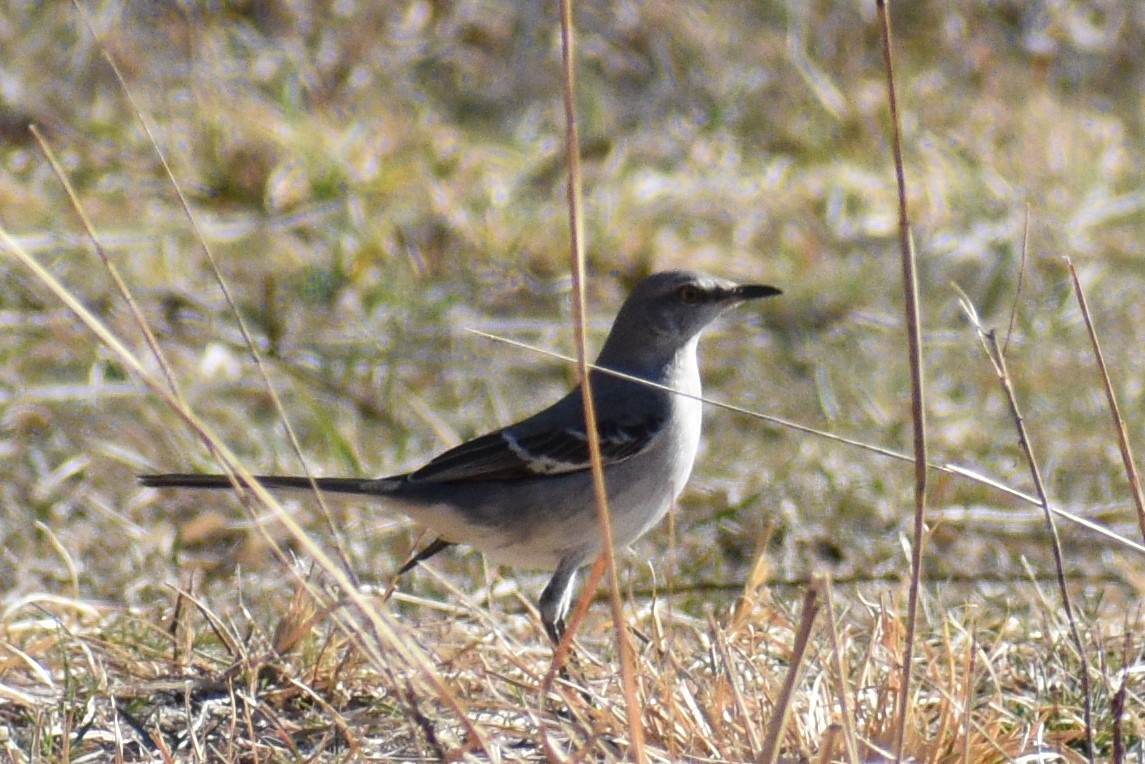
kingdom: Animalia
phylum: Chordata
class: Aves
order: Passeriformes
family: Mimidae
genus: Mimus
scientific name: Mimus polyglottos
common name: Northern mockingbird
